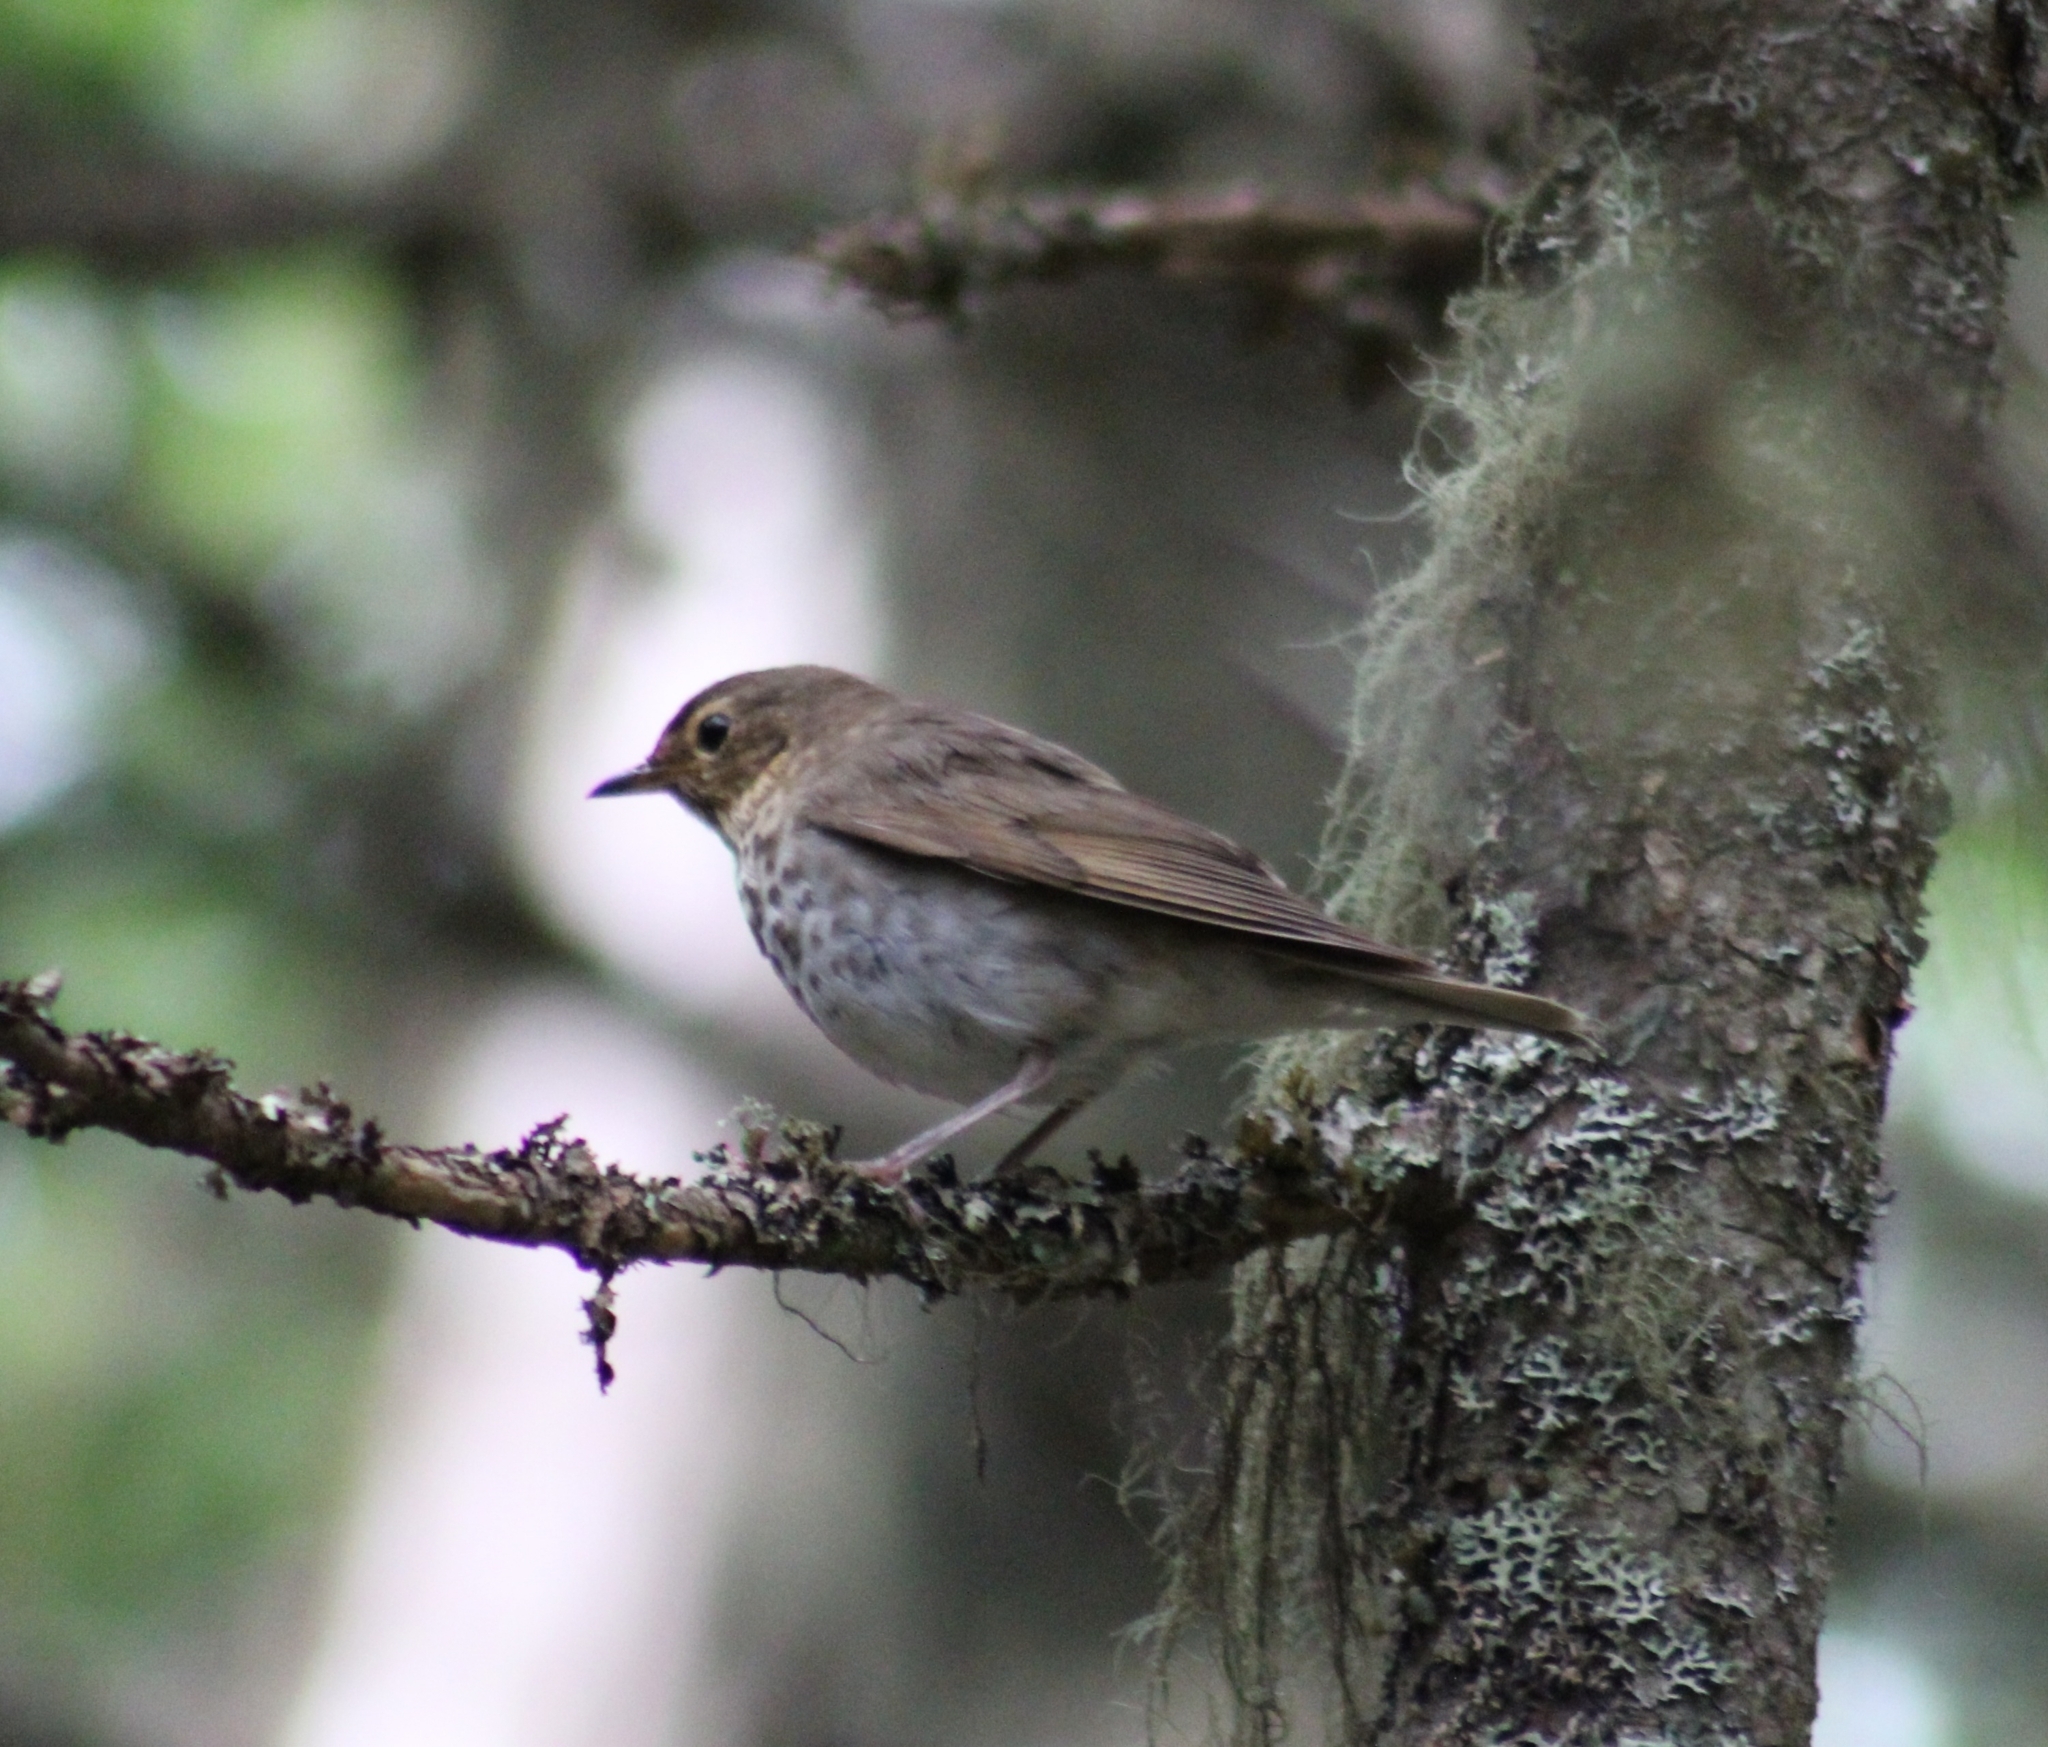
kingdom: Animalia
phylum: Chordata
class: Aves
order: Passeriformes
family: Turdidae
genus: Catharus
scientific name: Catharus ustulatus
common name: Swainson's thrush
